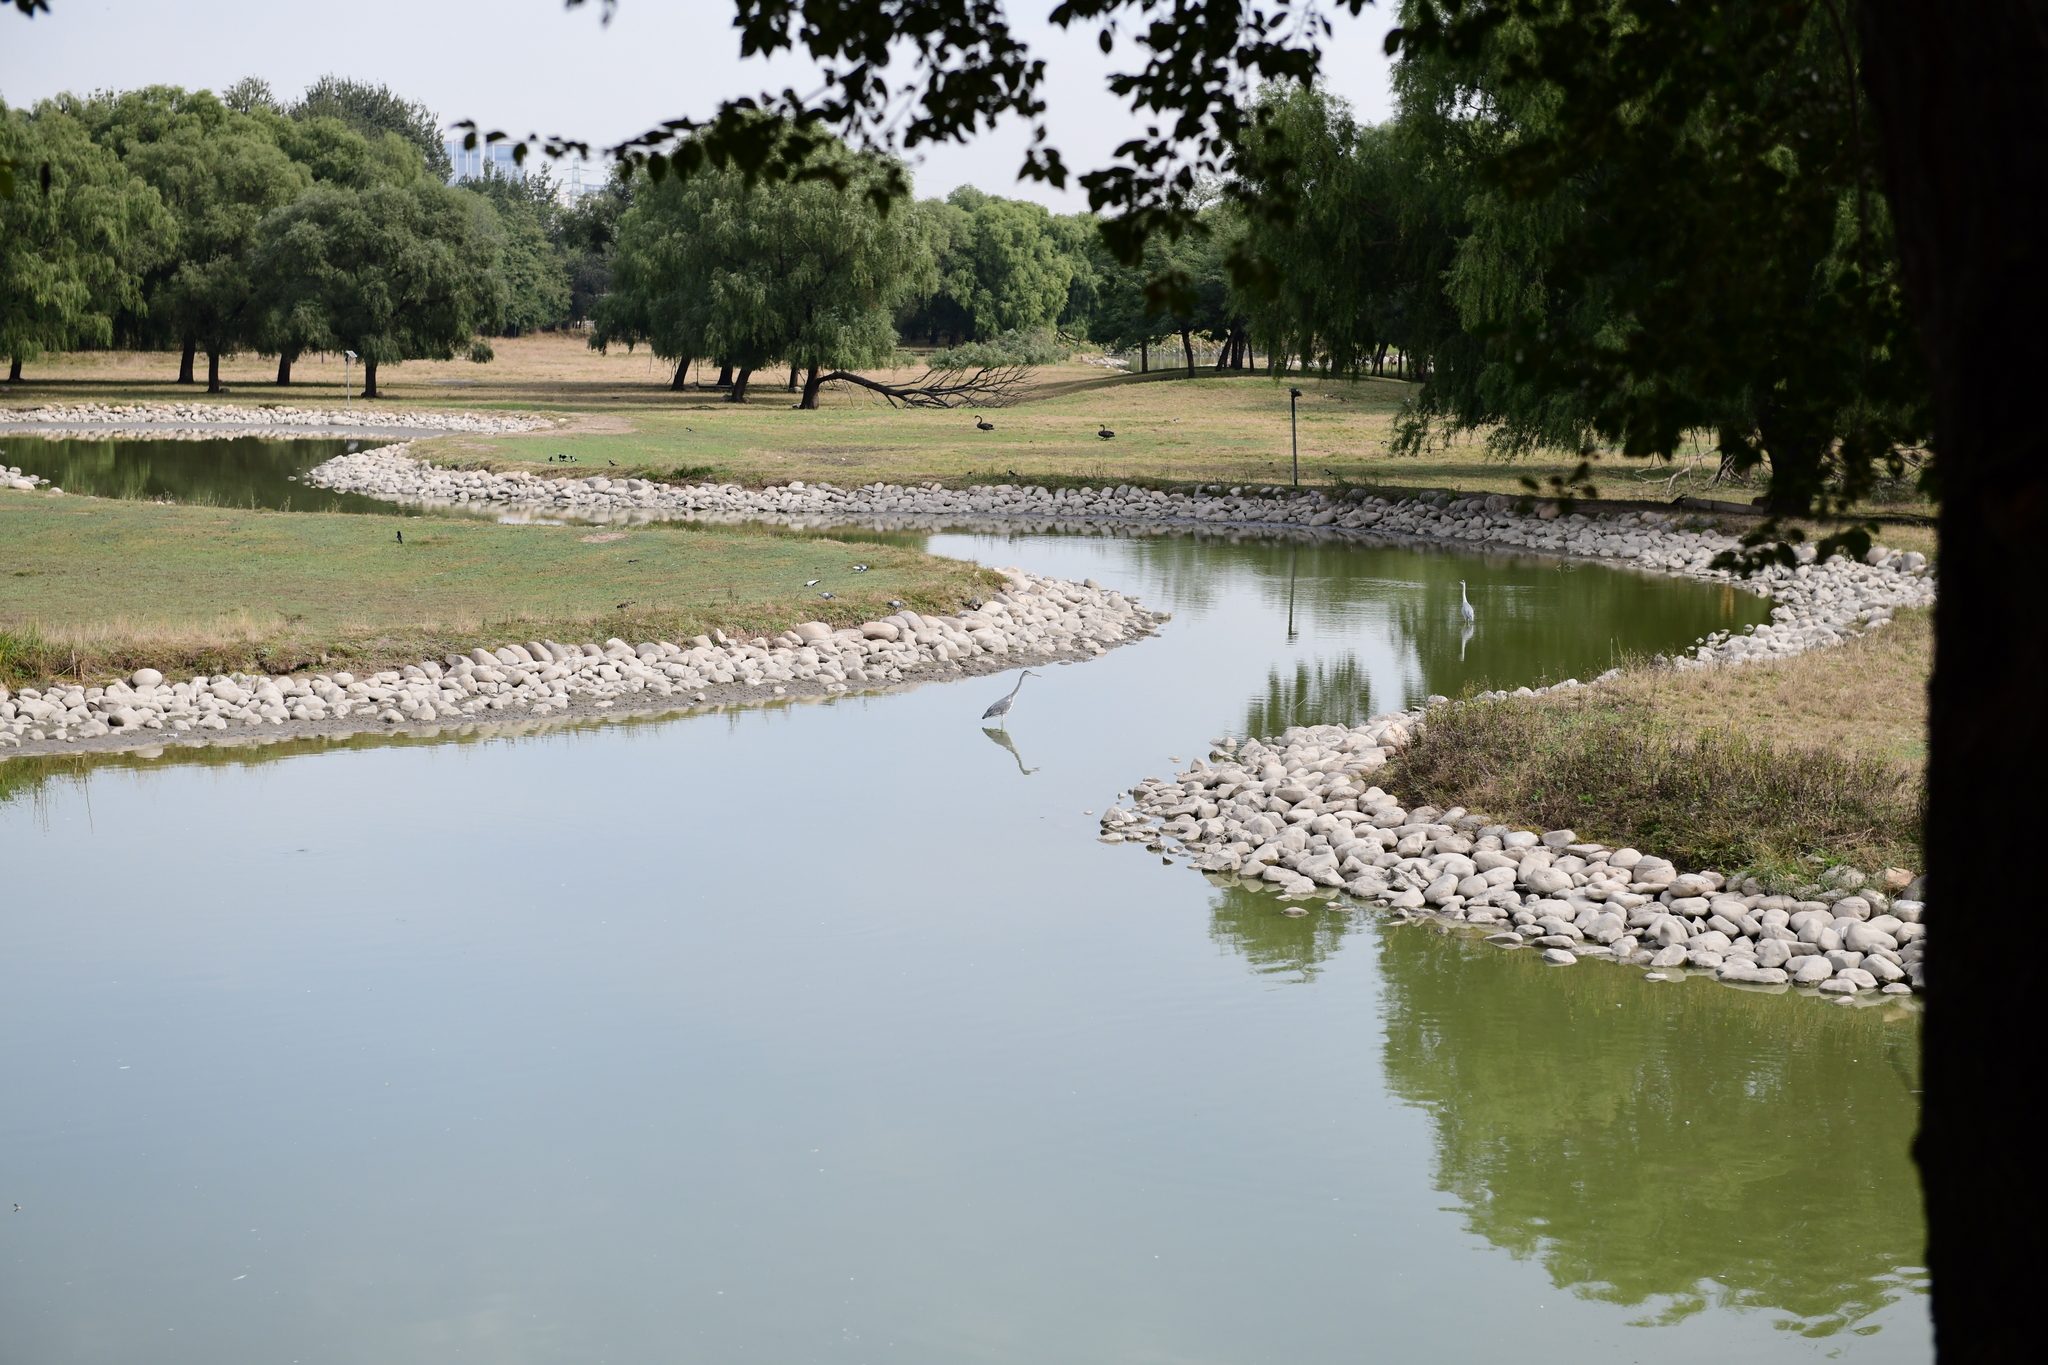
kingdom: Animalia
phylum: Chordata
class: Aves
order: Pelecaniformes
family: Ardeidae
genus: Ardea
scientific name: Ardea cinerea
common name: Grey heron
